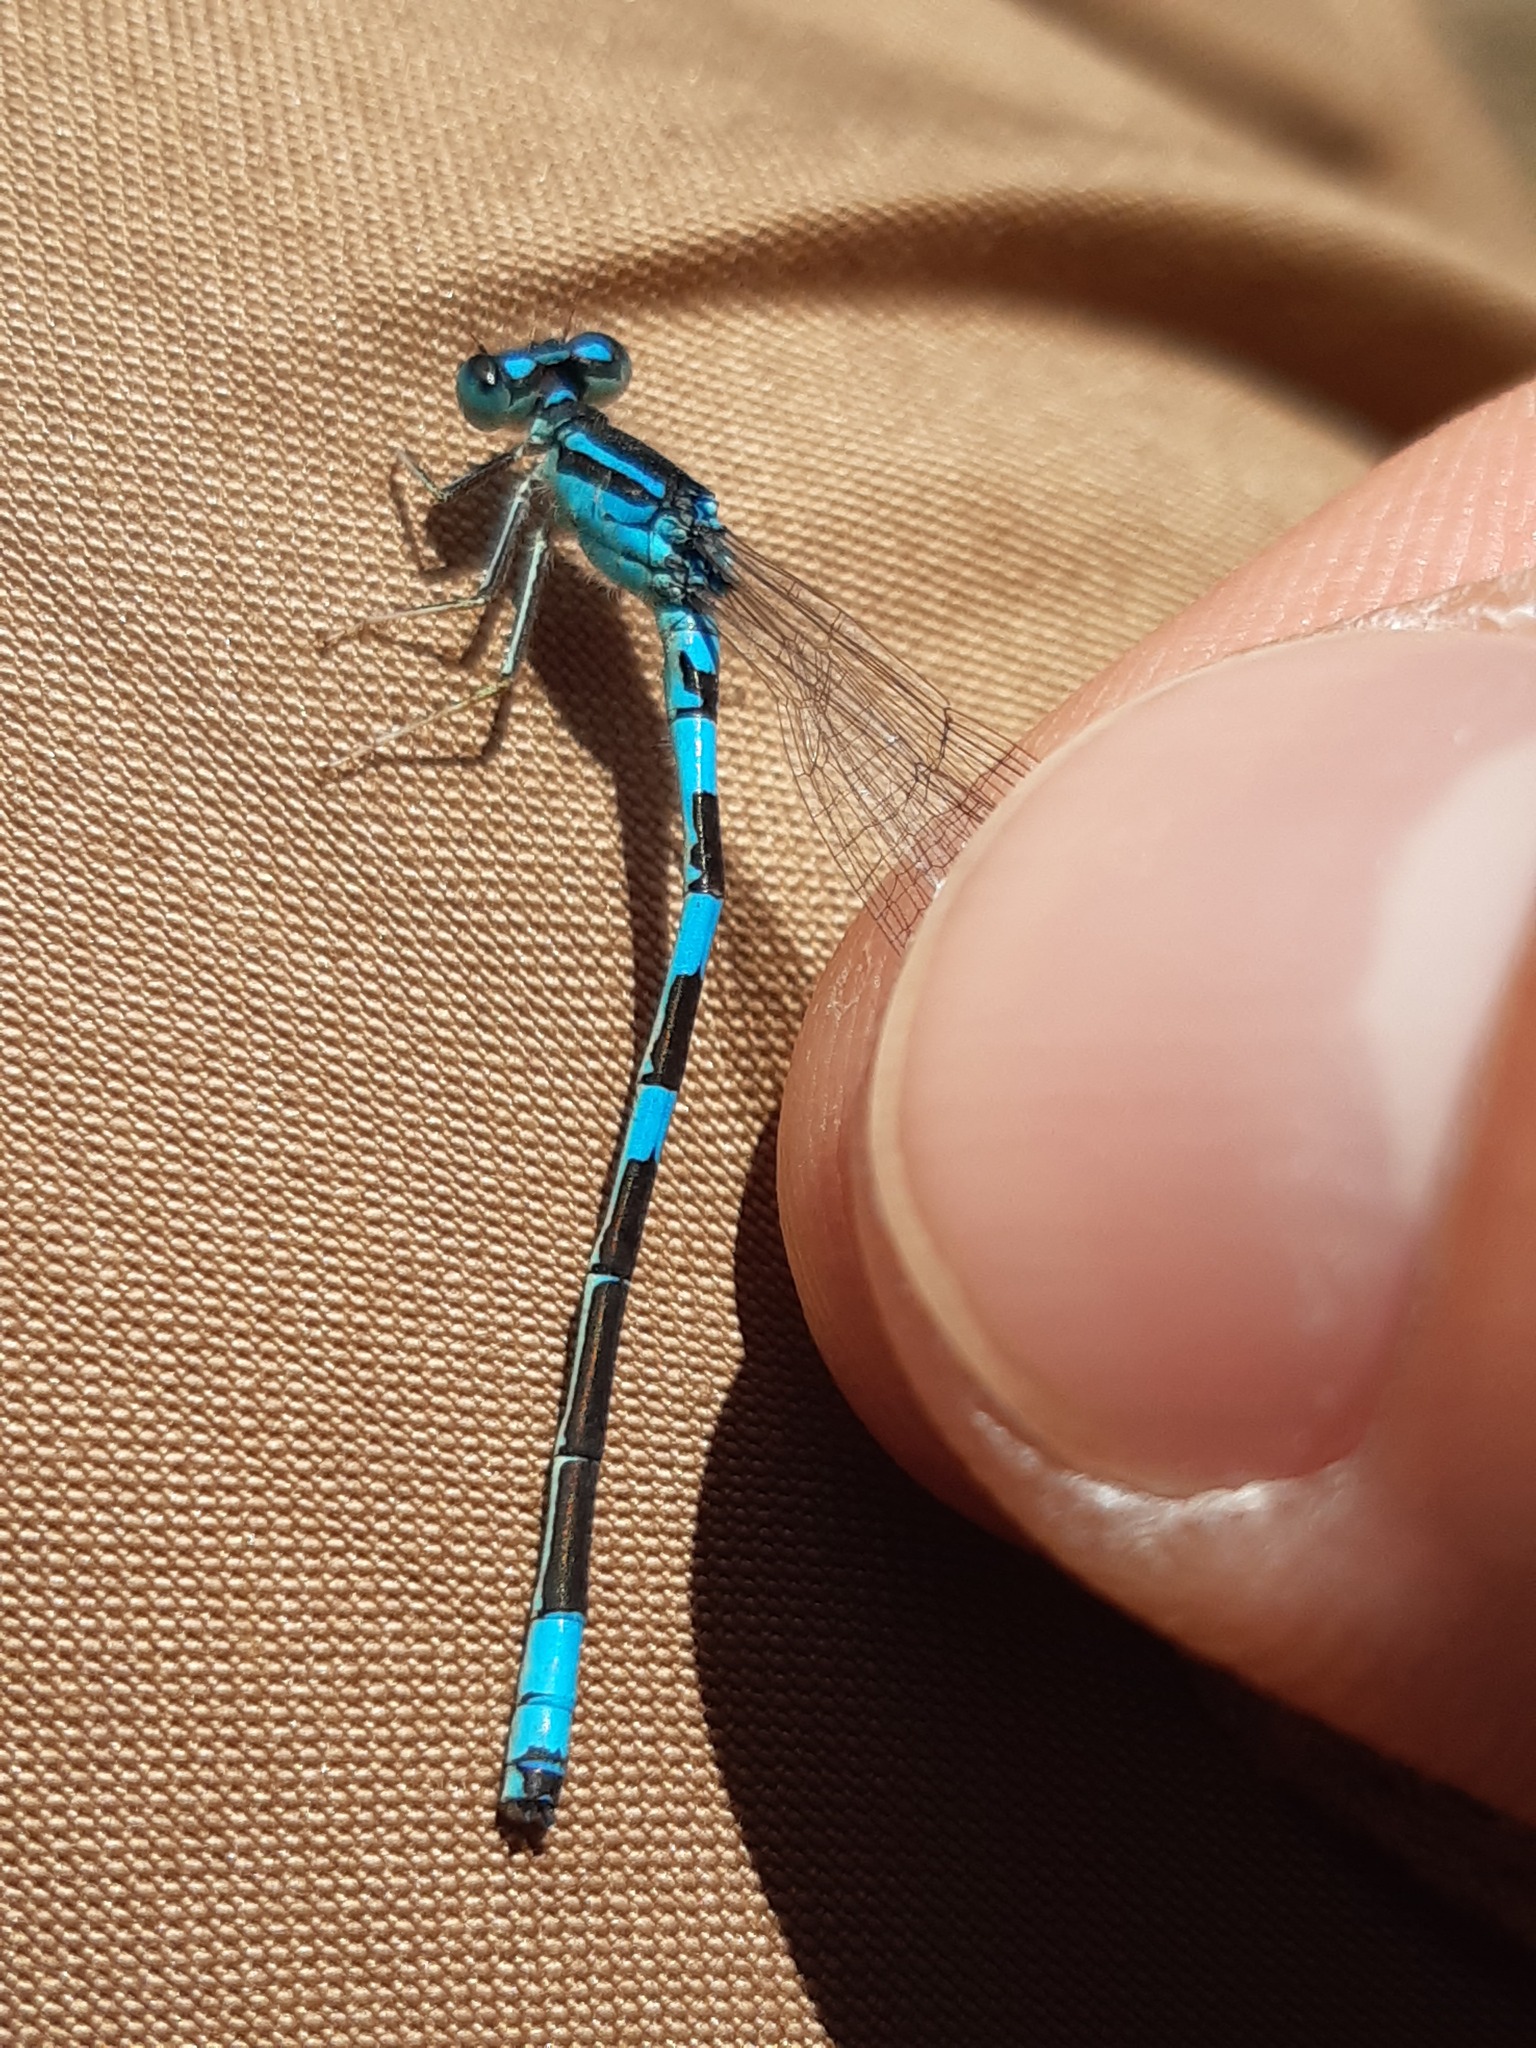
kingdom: Animalia
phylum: Arthropoda
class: Insecta
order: Odonata
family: Coenagrionidae
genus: Coenagrion
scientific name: Coenagrion scitulum
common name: Dainty bluet
